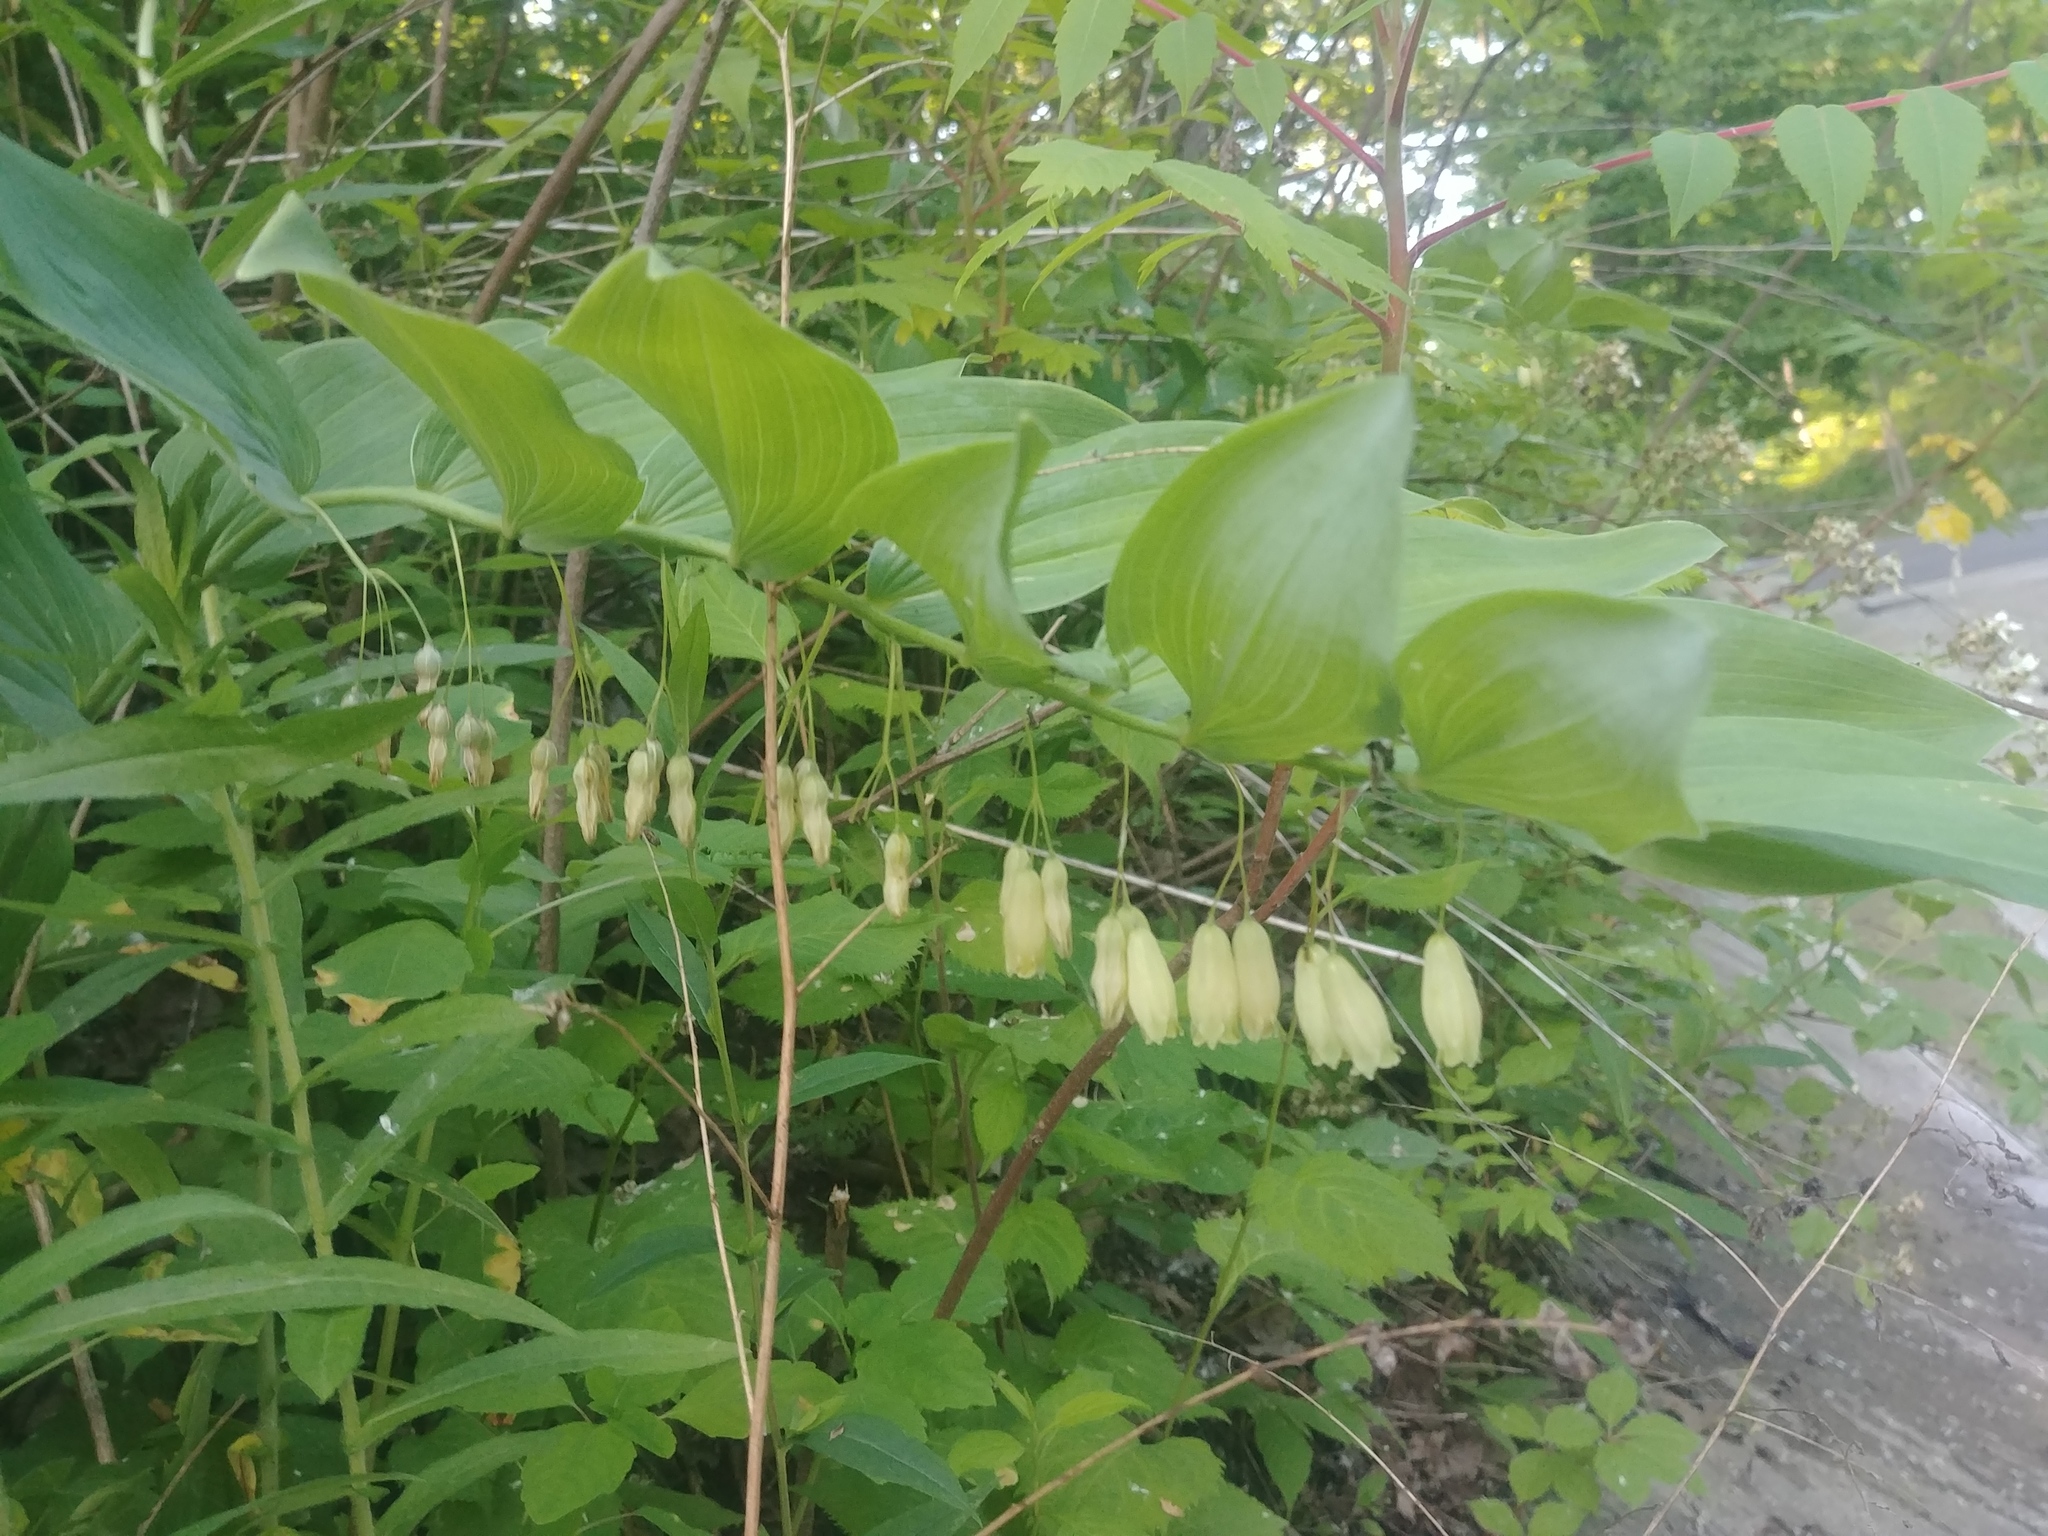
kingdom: Plantae
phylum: Tracheophyta
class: Liliopsida
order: Asparagales
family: Asparagaceae
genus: Polygonatum
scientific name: Polygonatum biflorum
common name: American solomon's-seal
